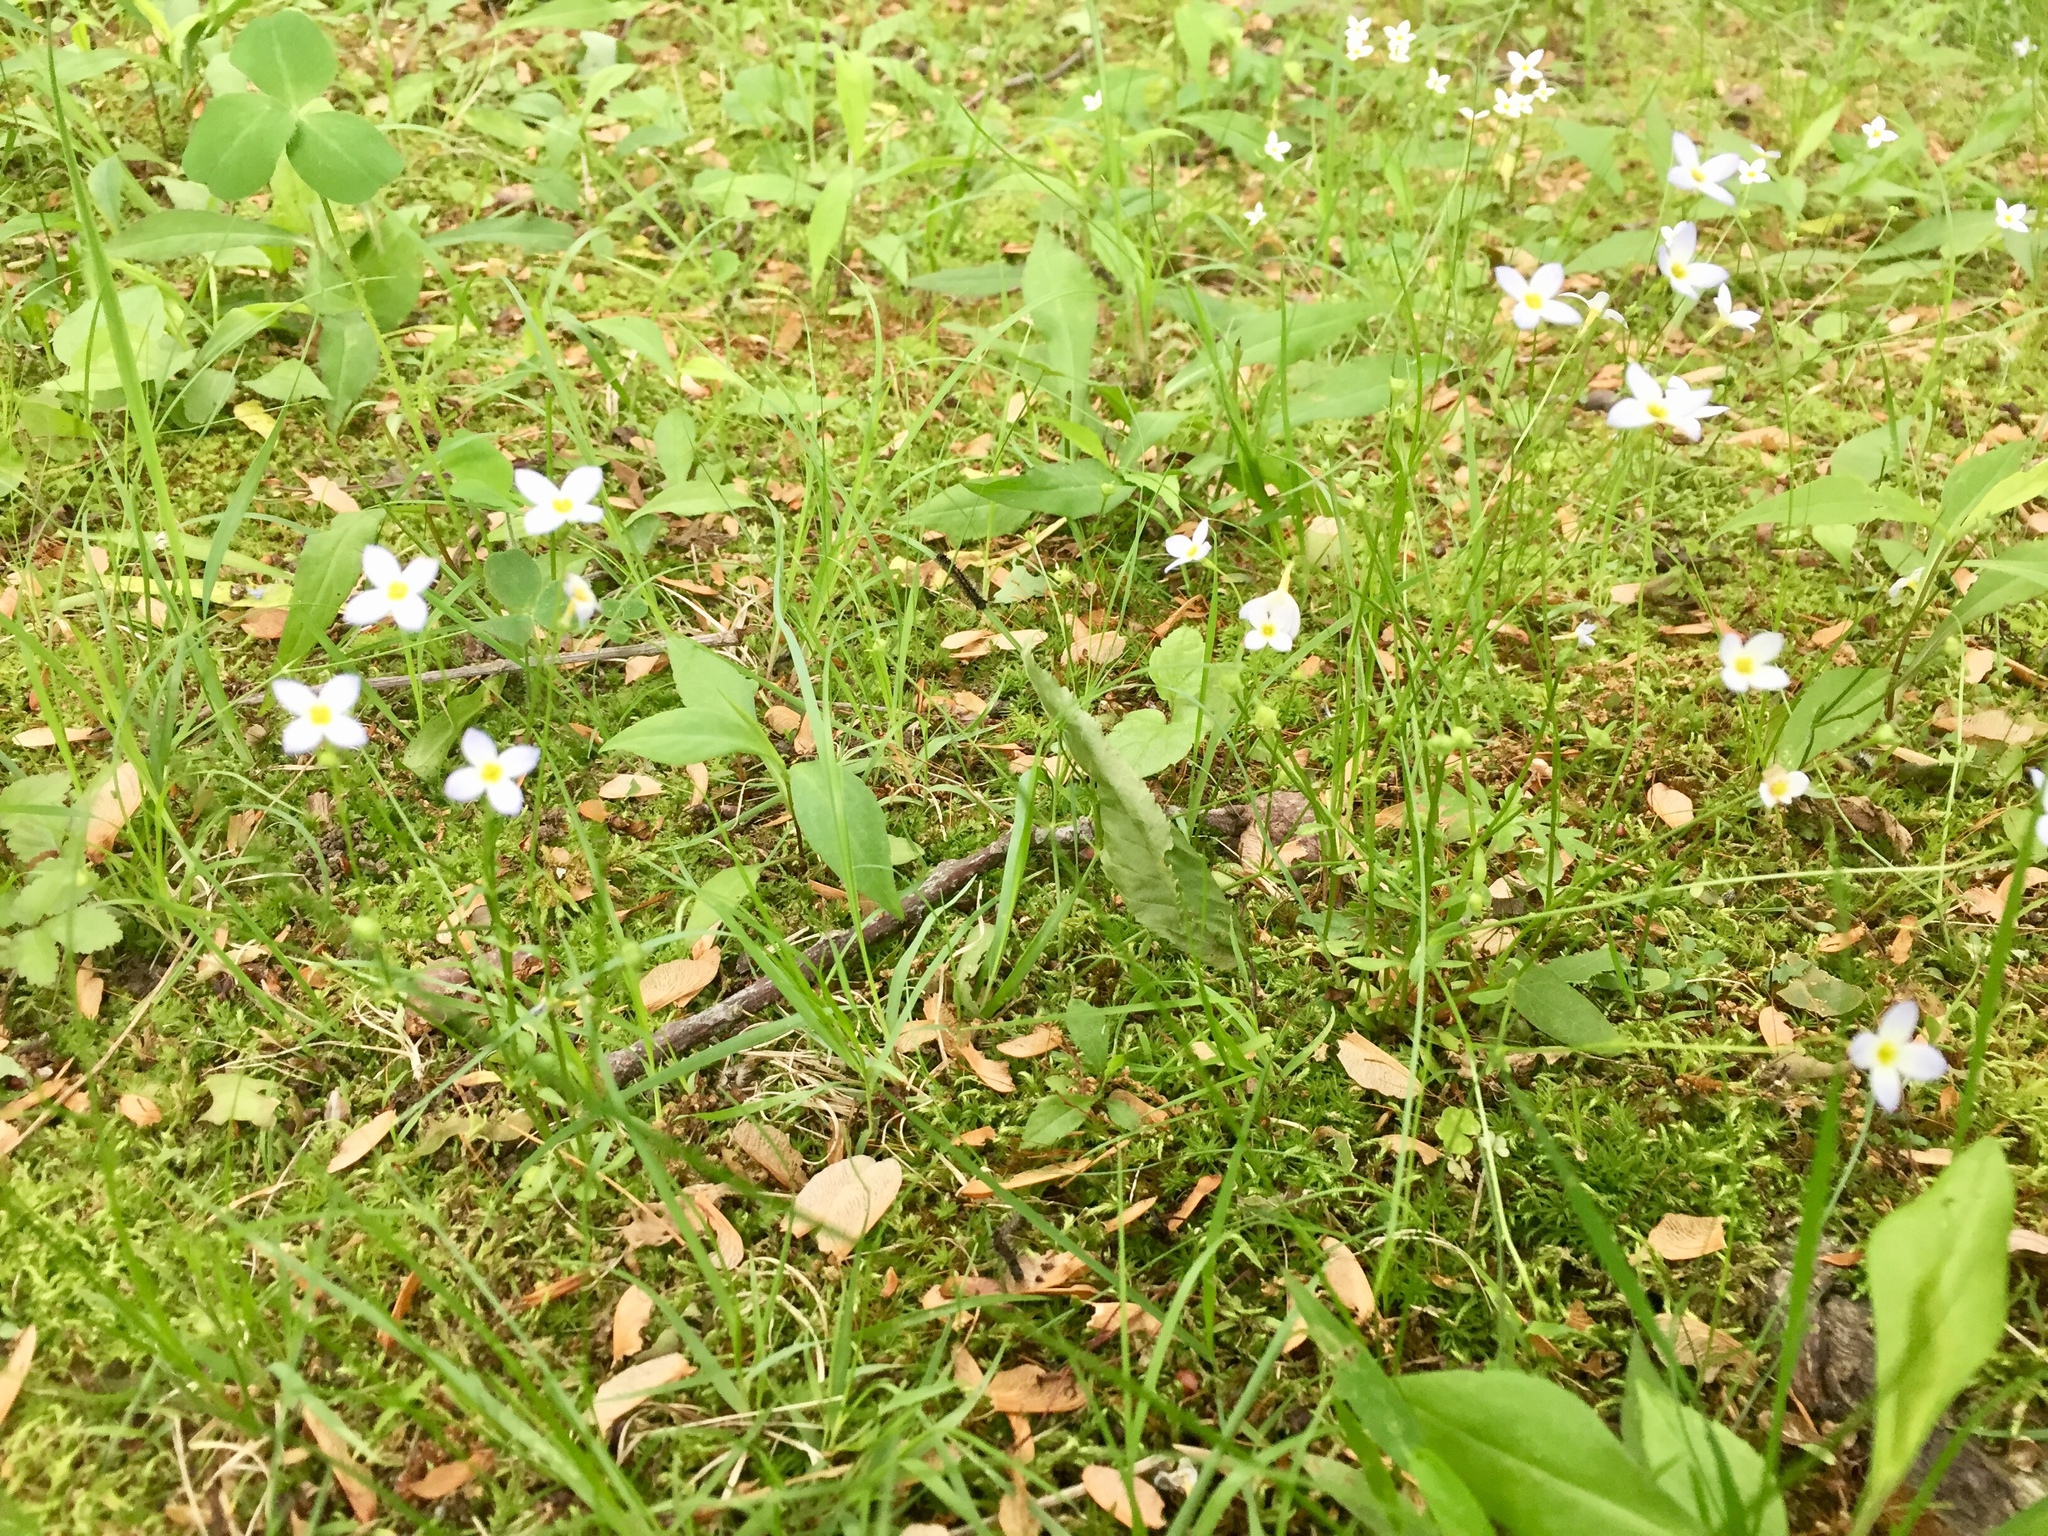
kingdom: Plantae
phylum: Tracheophyta
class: Magnoliopsida
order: Gentianales
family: Rubiaceae
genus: Houstonia
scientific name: Houstonia caerulea
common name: Bluets
